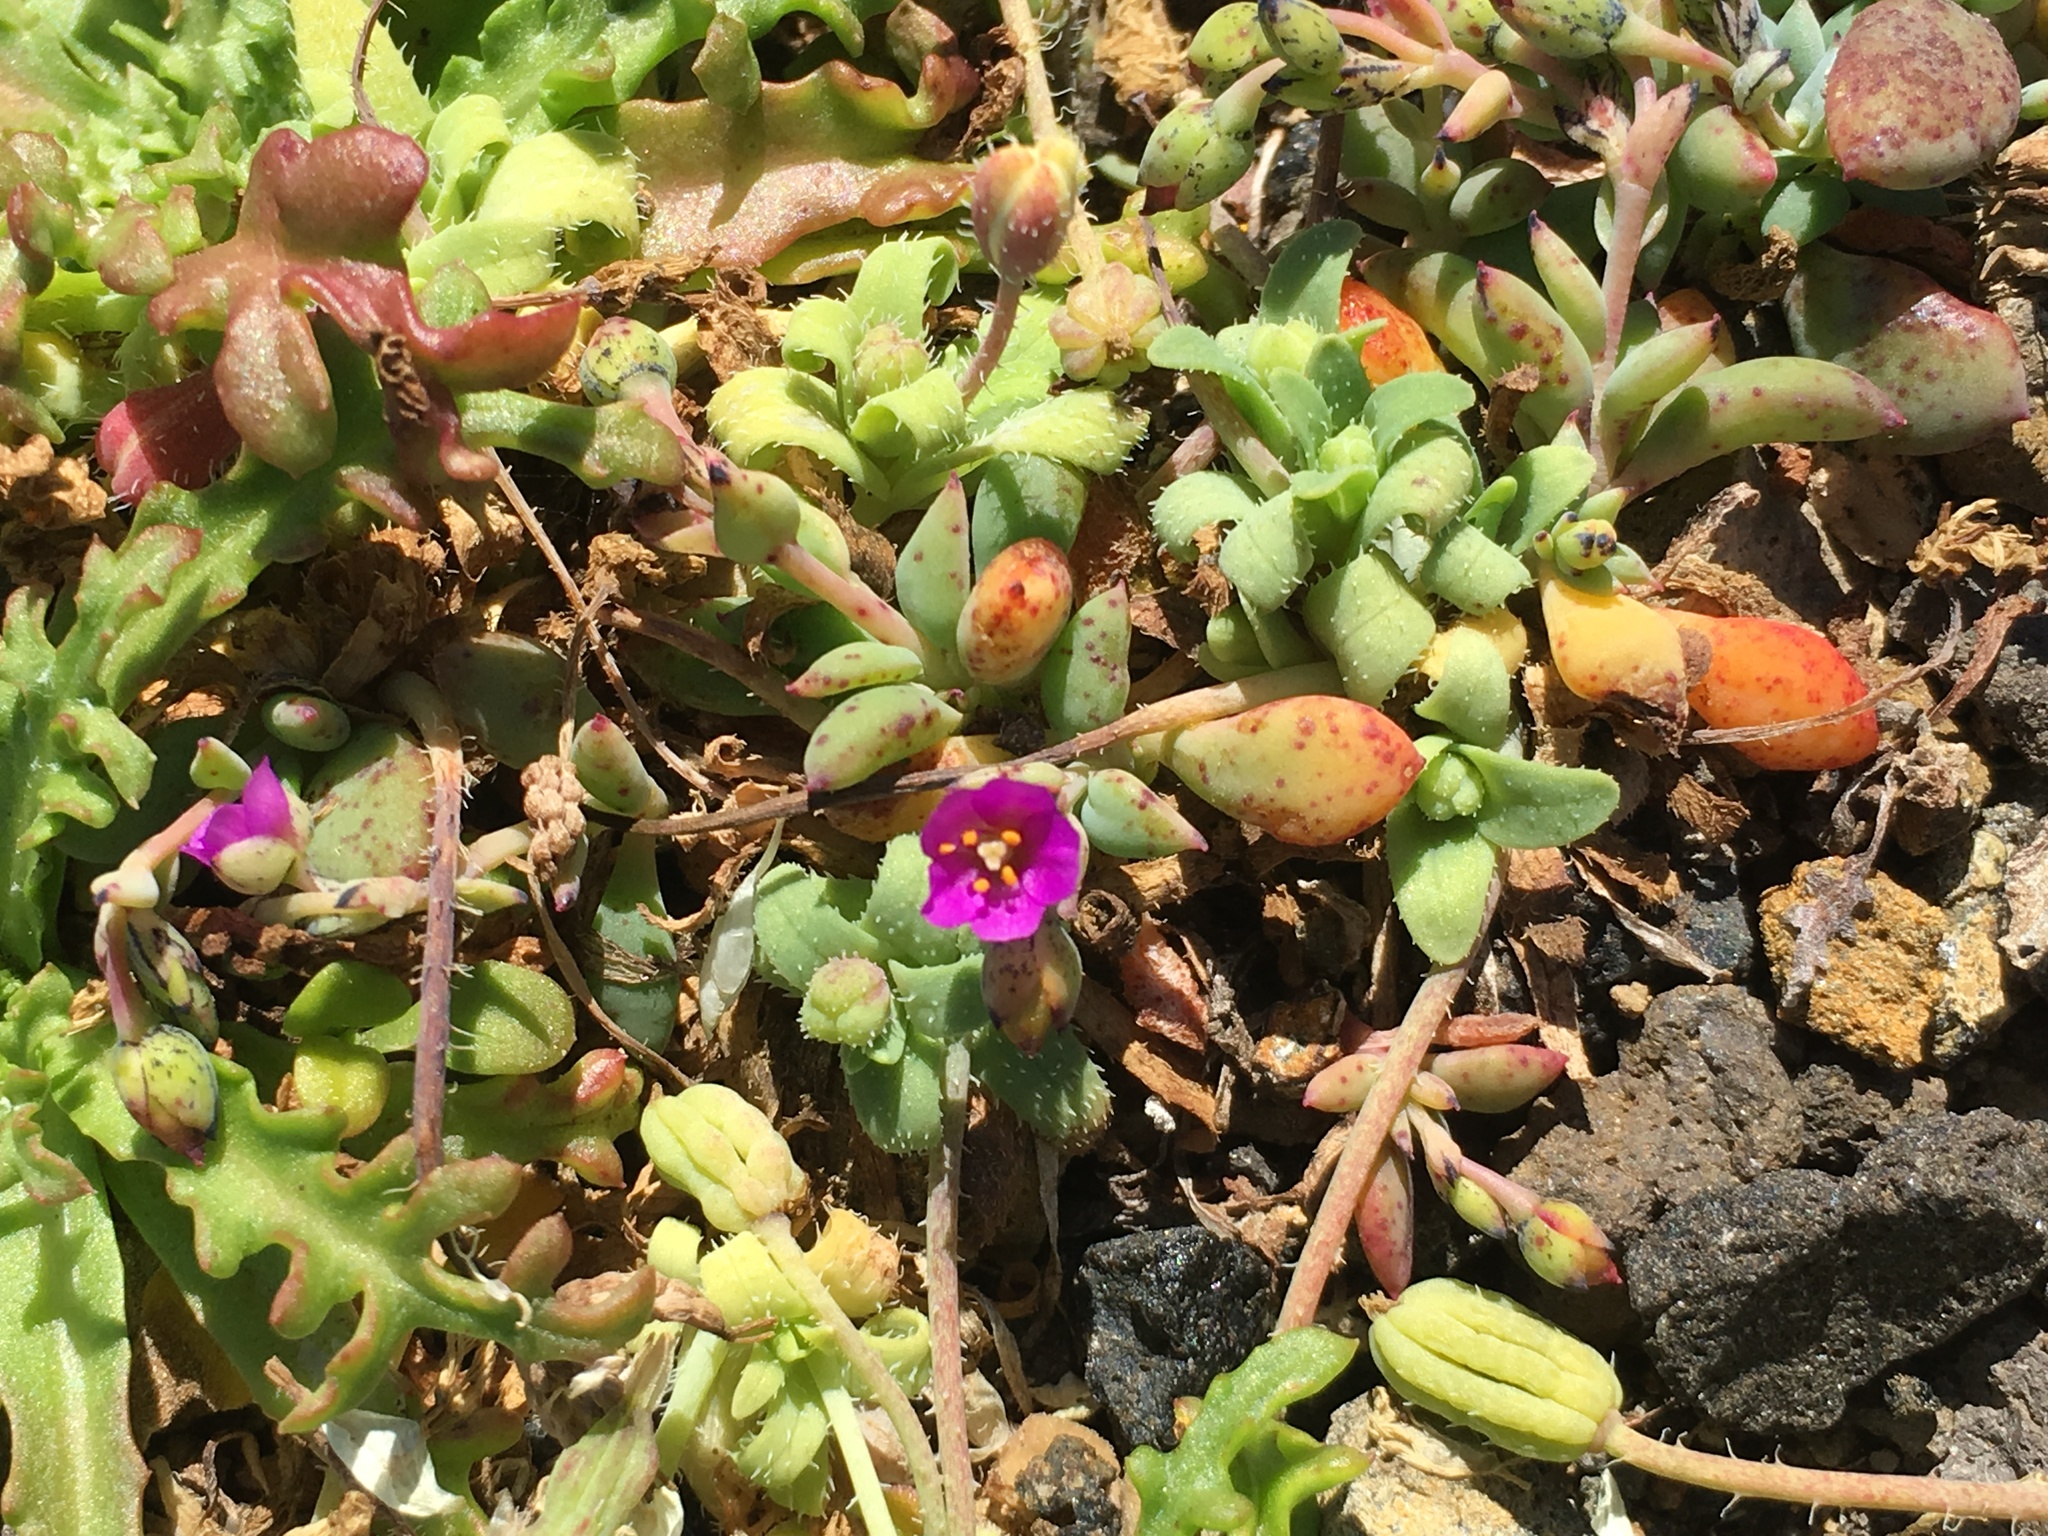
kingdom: Plantae
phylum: Tracheophyta
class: Magnoliopsida
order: Caryophyllales
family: Montiaceae
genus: Cistanthe
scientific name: Cistanthe maritima
